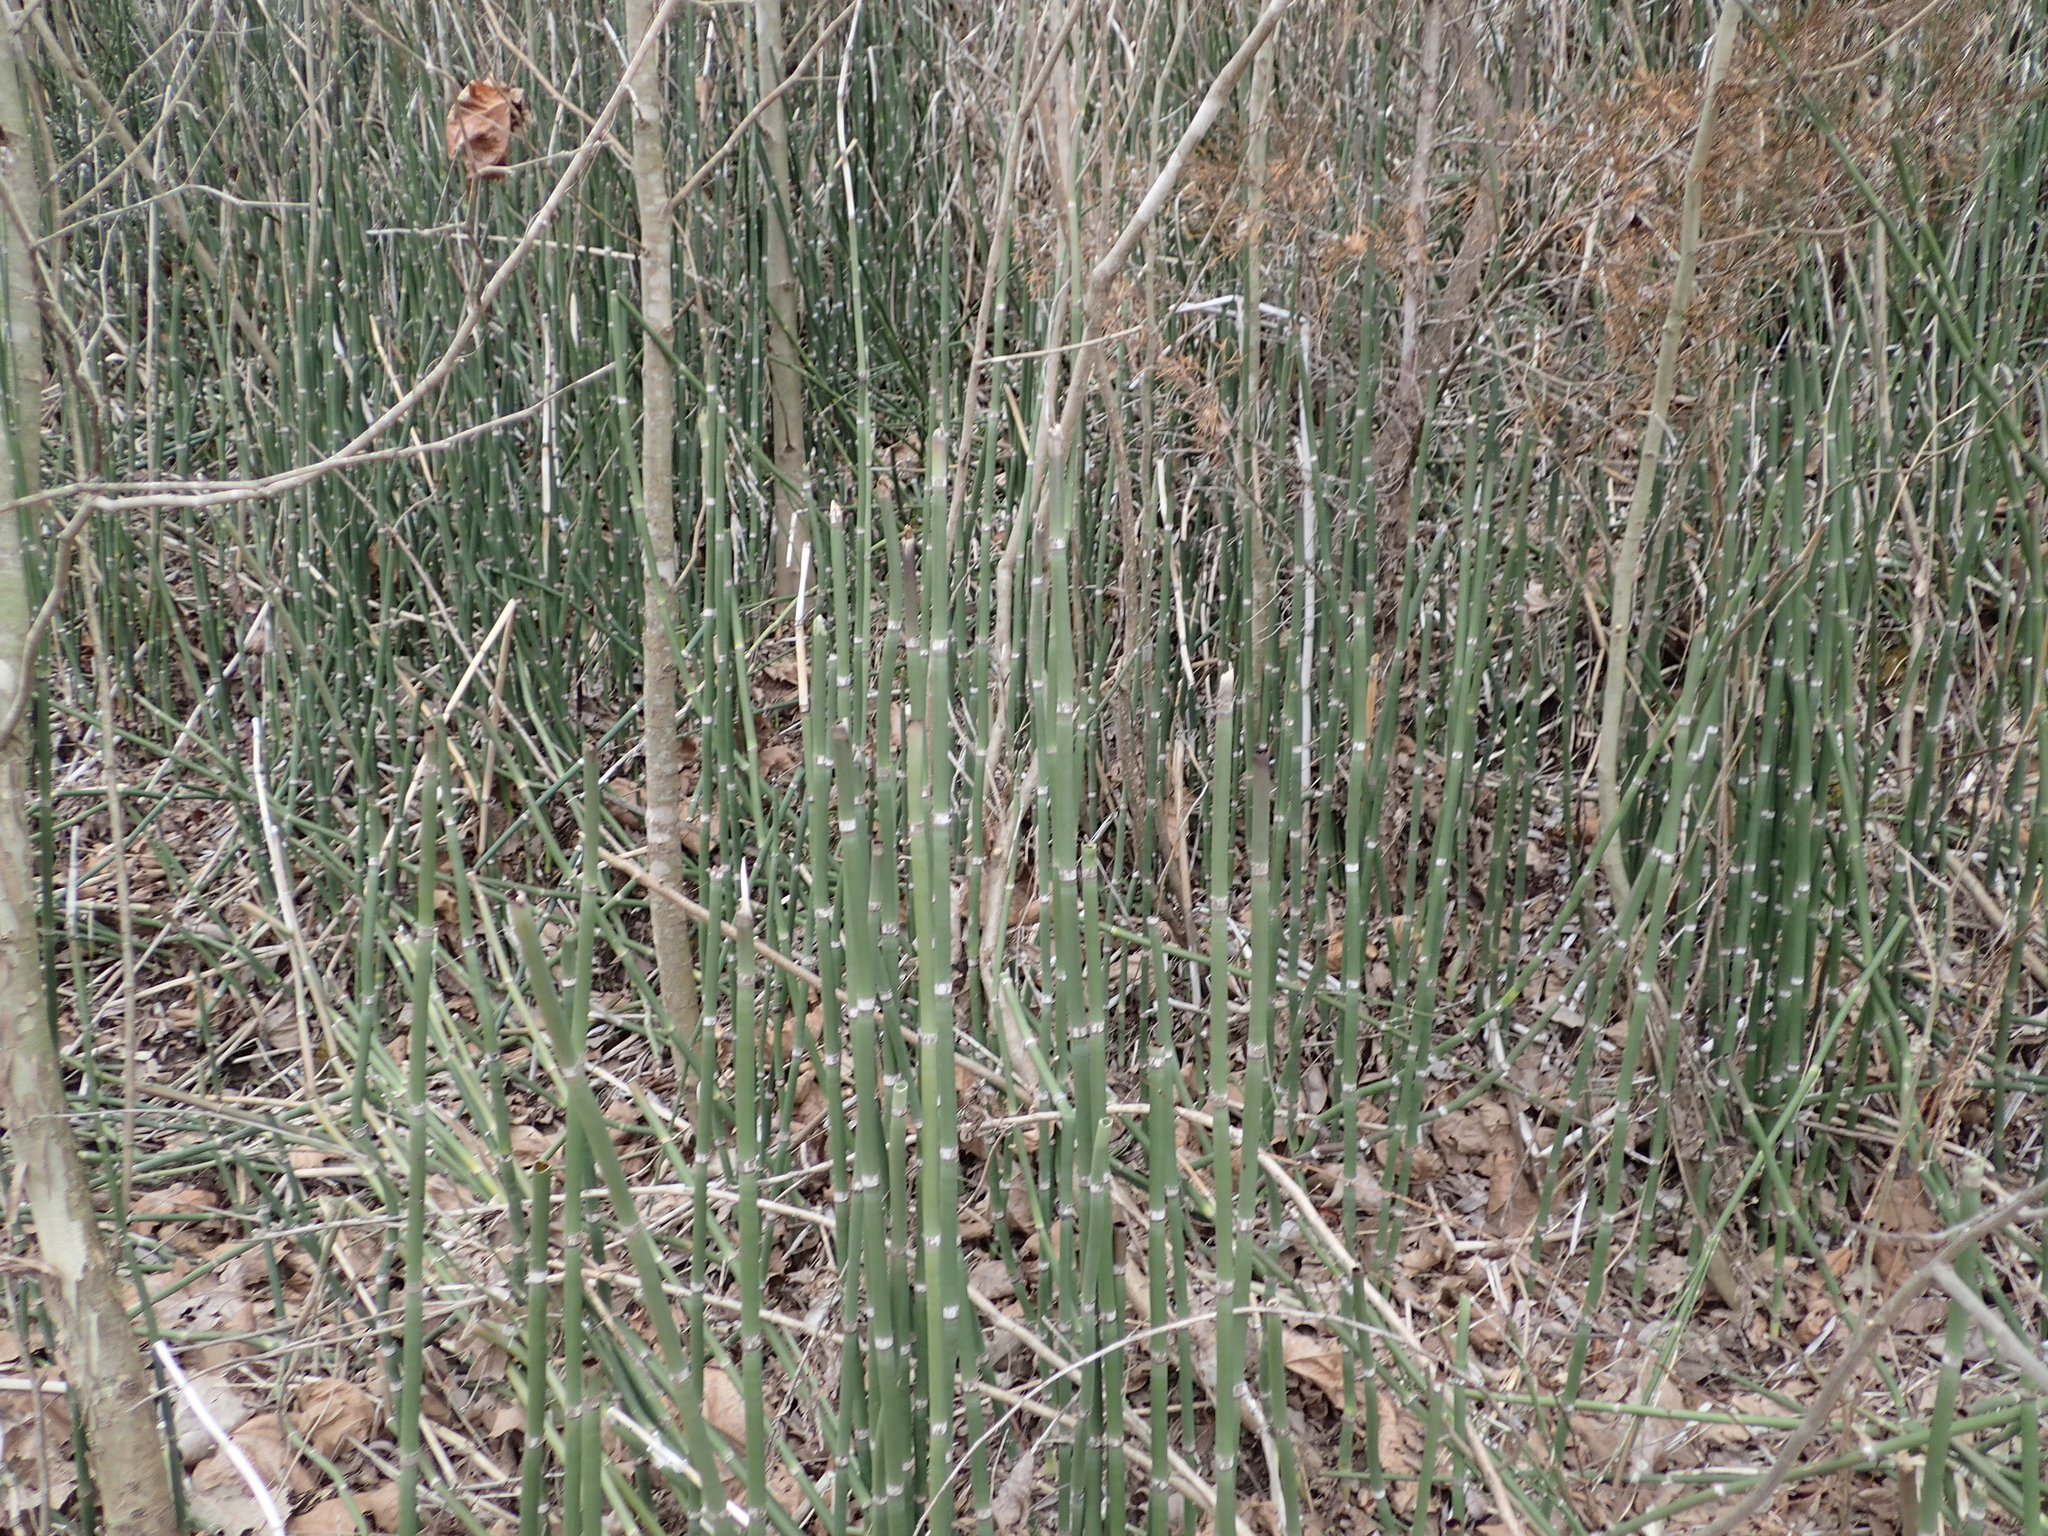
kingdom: Plantae
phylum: Tracheophyta
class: Polypodiopsida
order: Equisetales
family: Equisetaceae
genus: Equisetum
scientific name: Equisetum hyemale
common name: Rough horsetail
